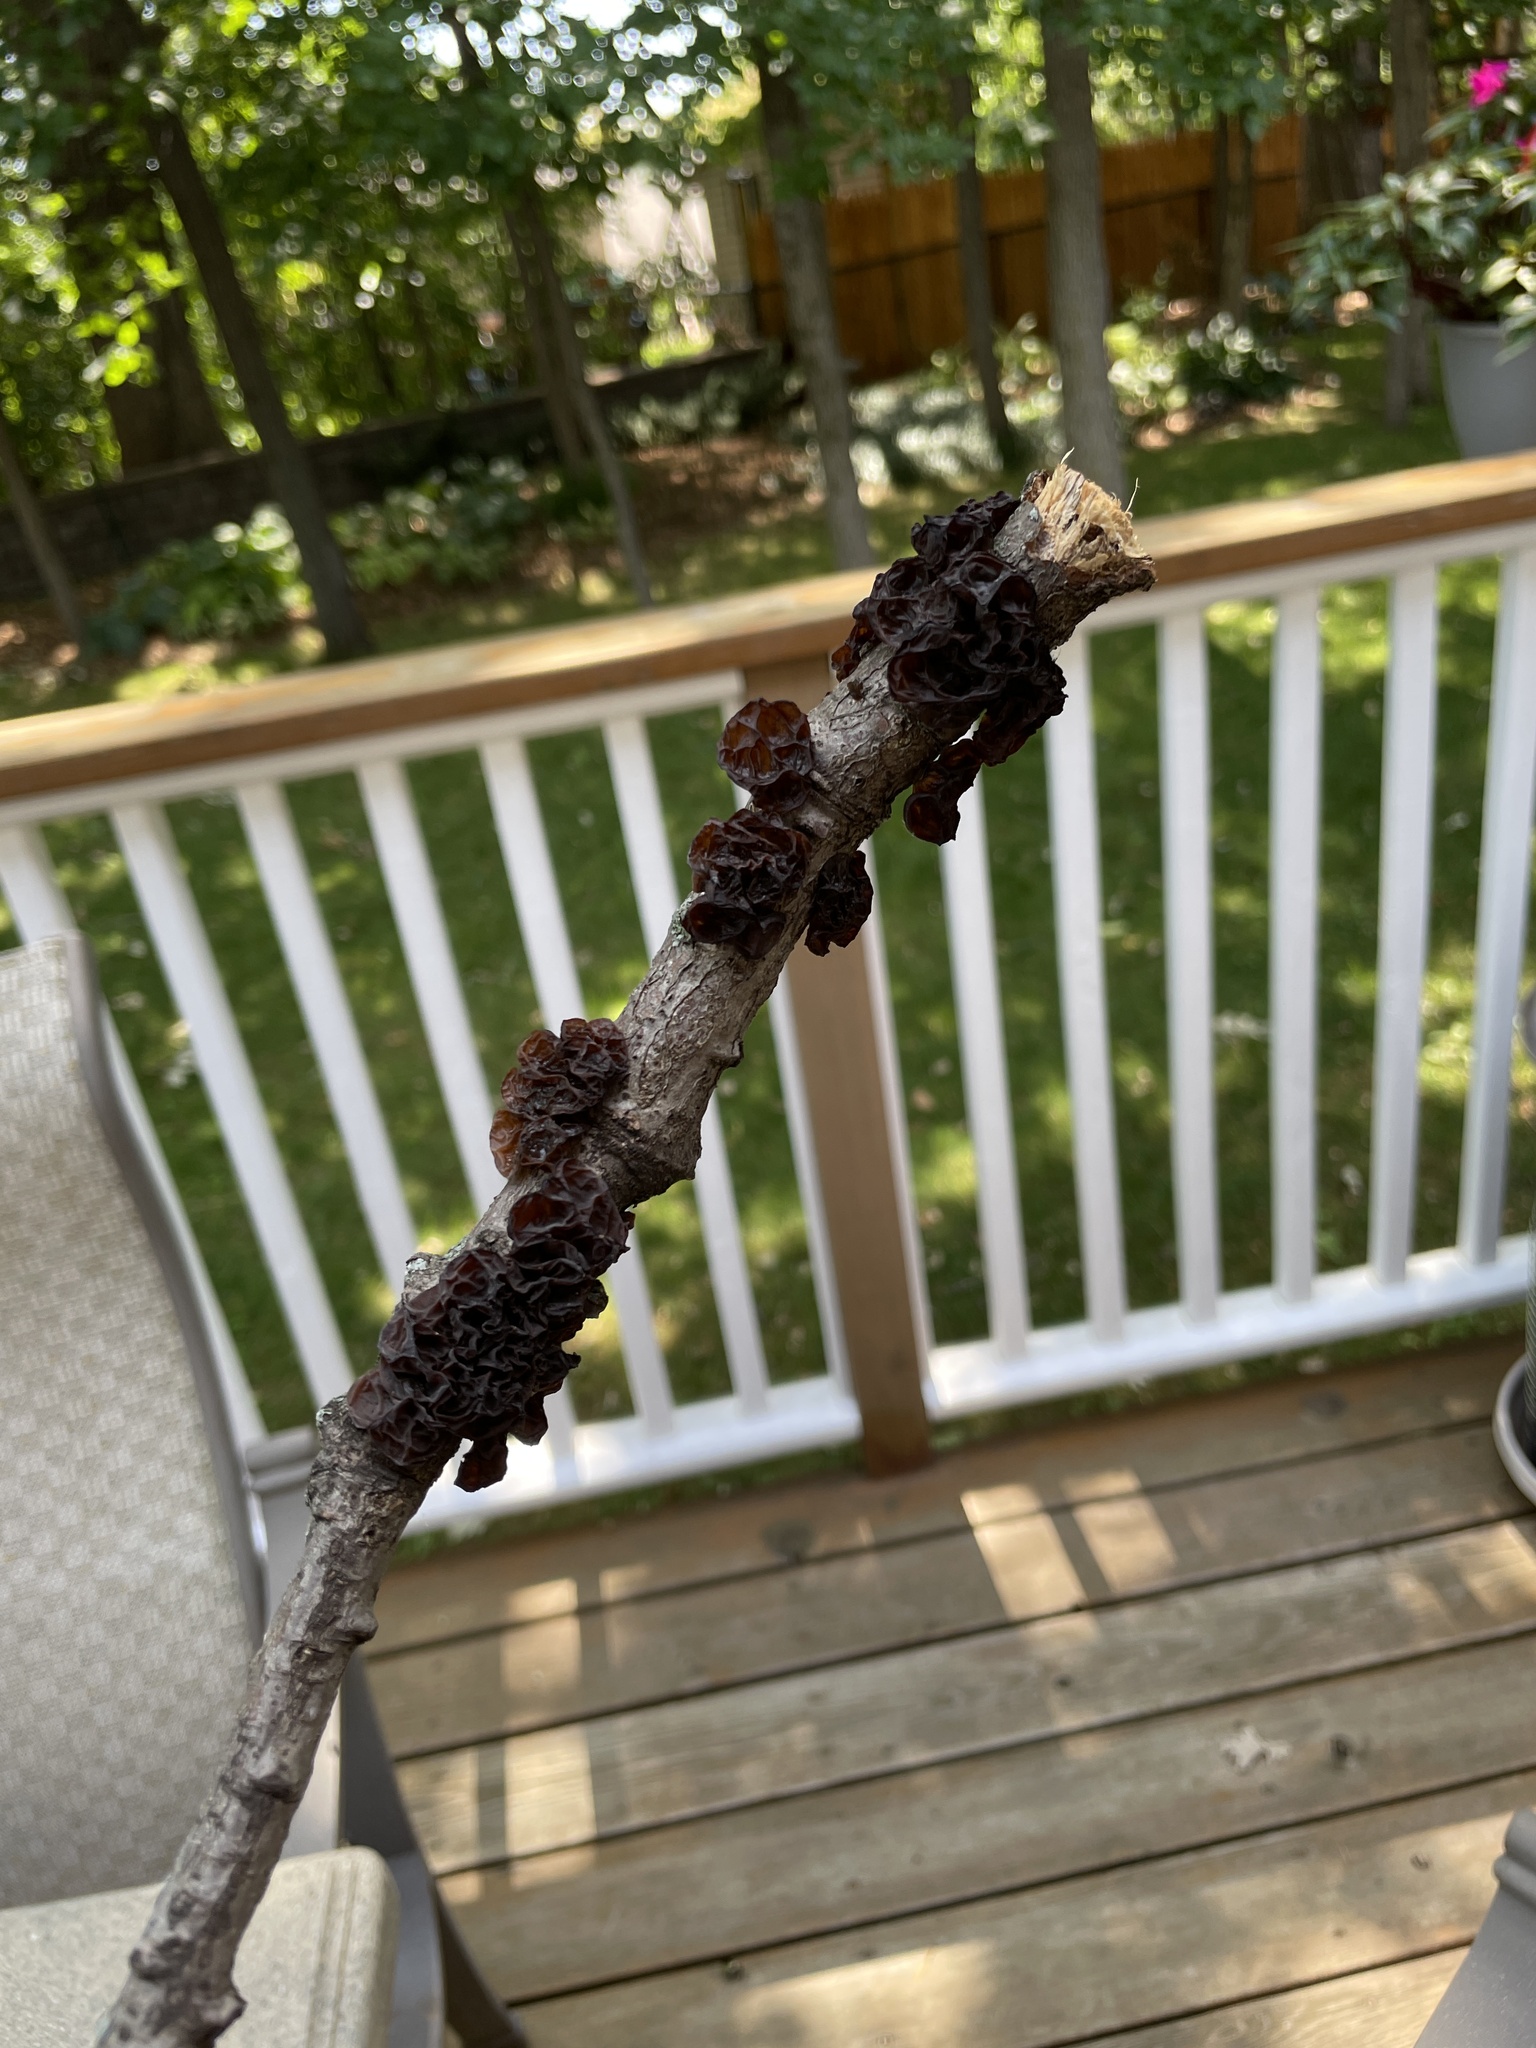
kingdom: Fungi
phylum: Basidiomycota
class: Agaricomycetes
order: Auriculariales
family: Auriculariaceae
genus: Exidia
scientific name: Exidia
